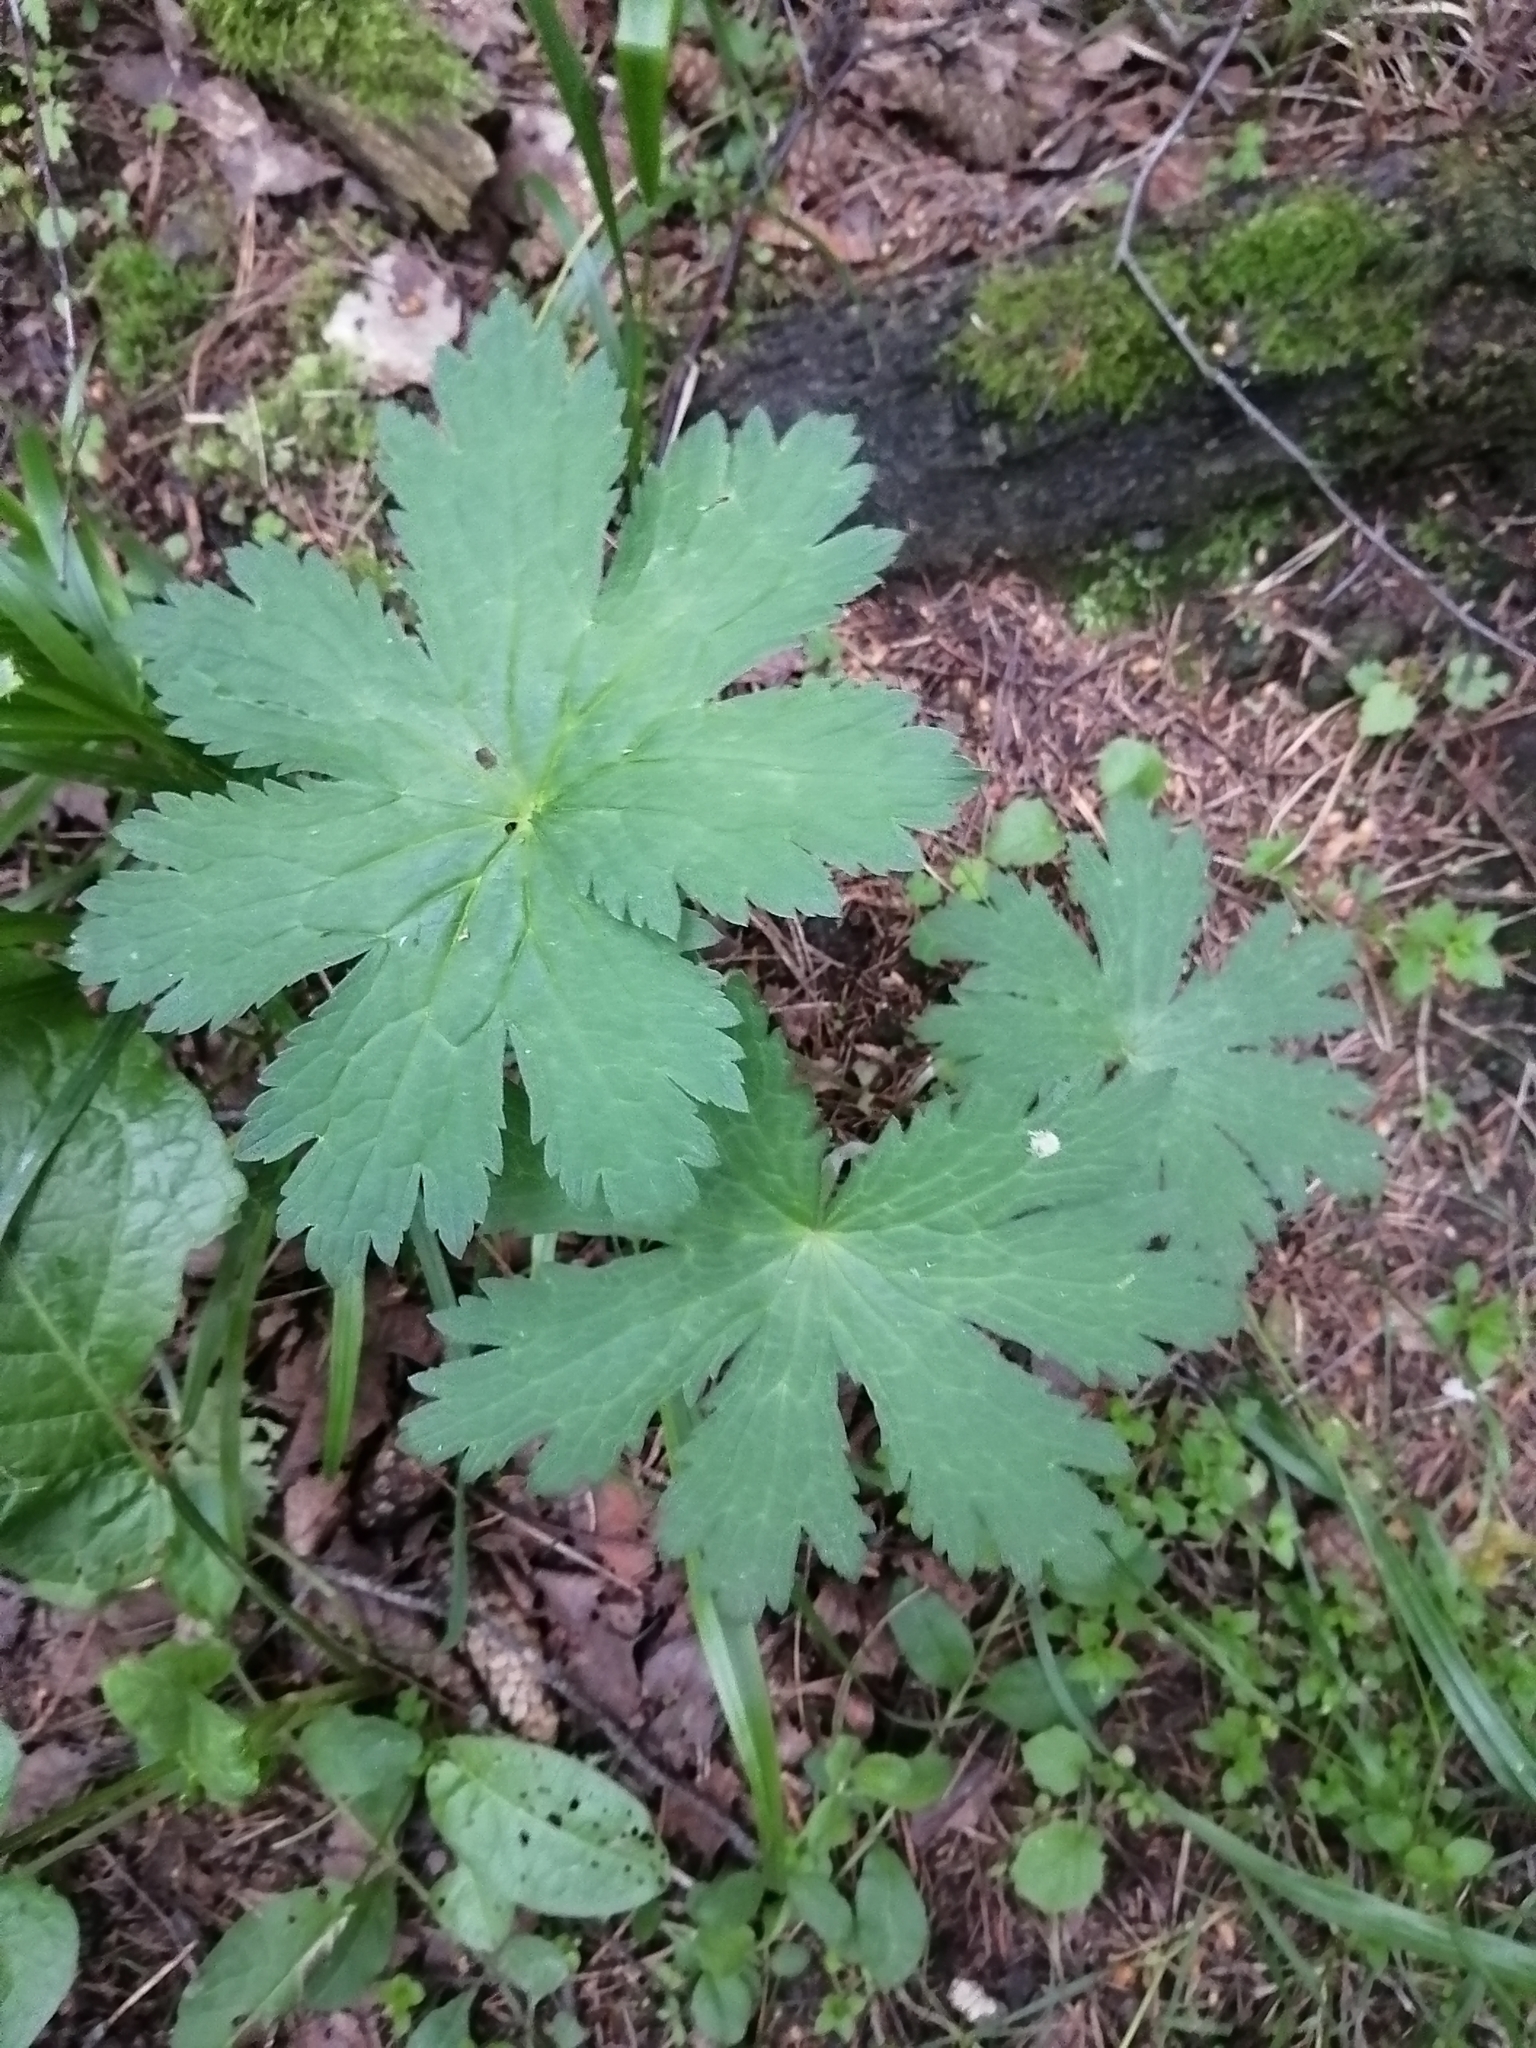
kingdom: Plantae
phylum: Tracheophyta
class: Magnoliopsida
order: Geraniales
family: Geraniaceae
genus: Geranium
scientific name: Geranium sylvaticum
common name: Wood crane's-bill
